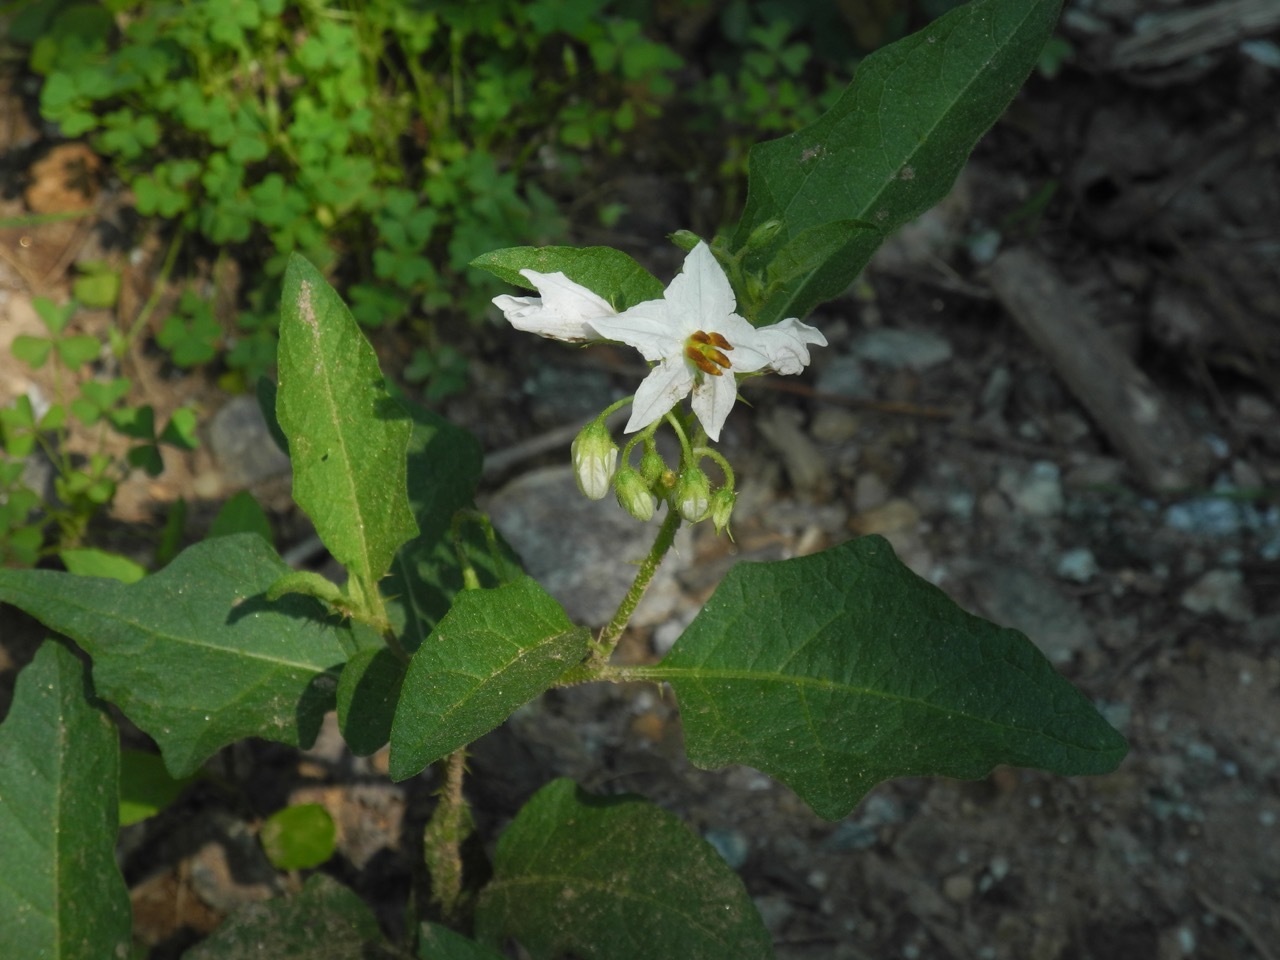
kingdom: Plantae
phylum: Tracheophyta
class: Magnoliopsida
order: Solanales
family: Solanaceae
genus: Solanum
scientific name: Solanum carolinense
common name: Horse-nettle
